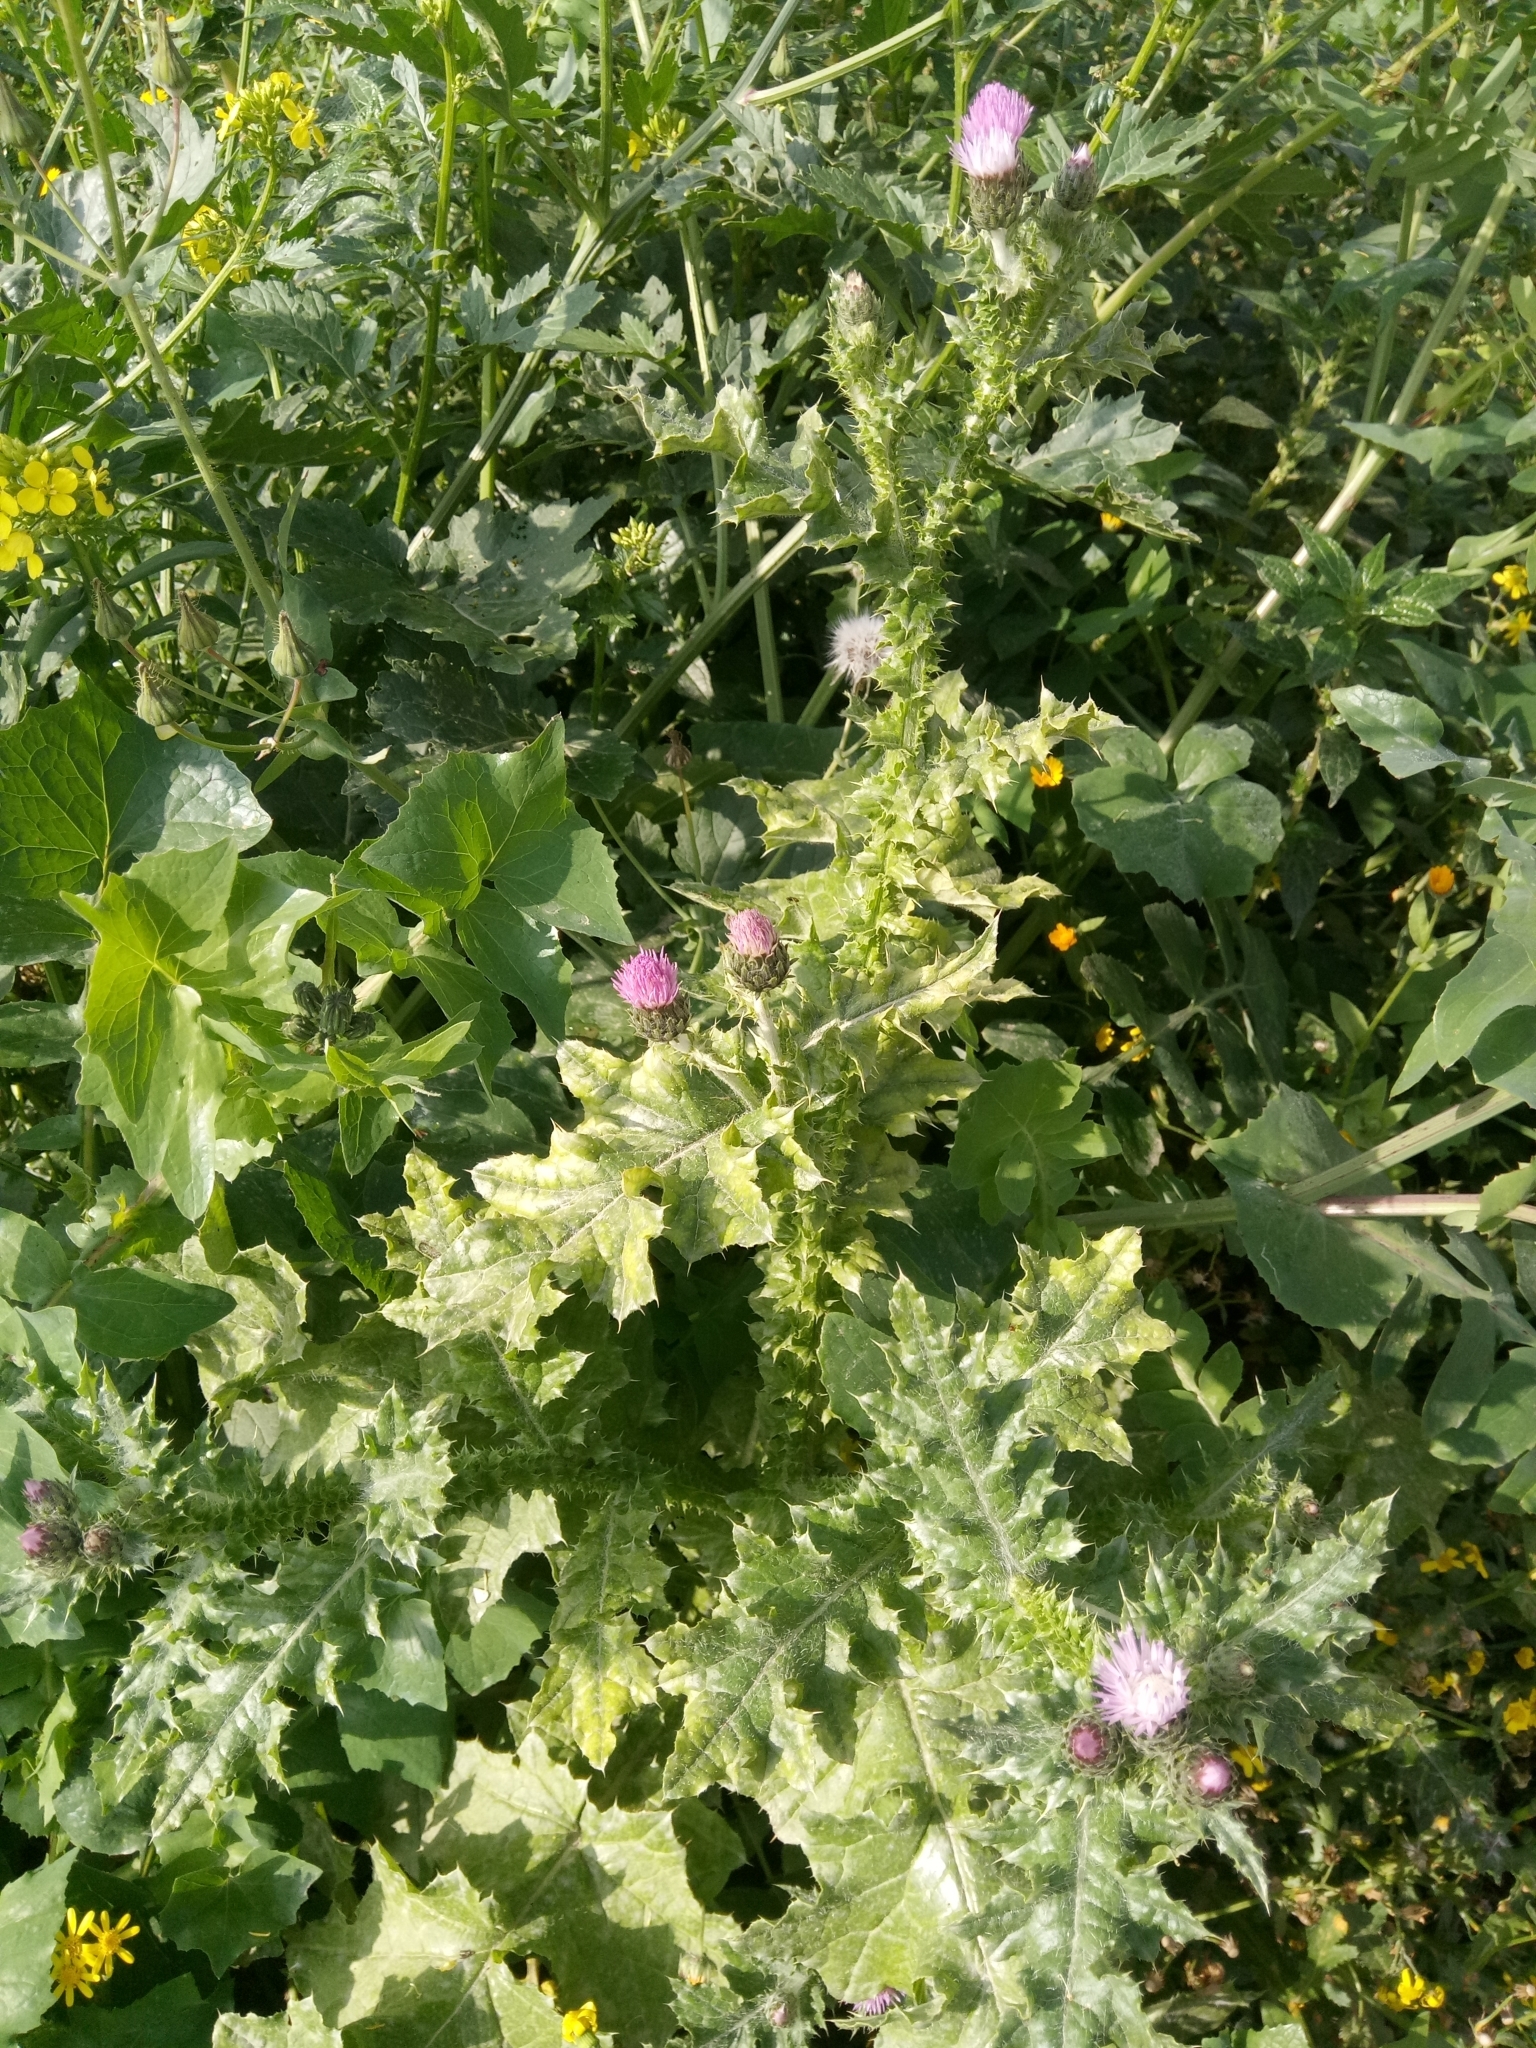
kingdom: Plantae
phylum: Tracheophyta
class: Magnoliopsida
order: Asterales
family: Asteraceae
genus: Carduus
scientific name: Carduus spachianus
